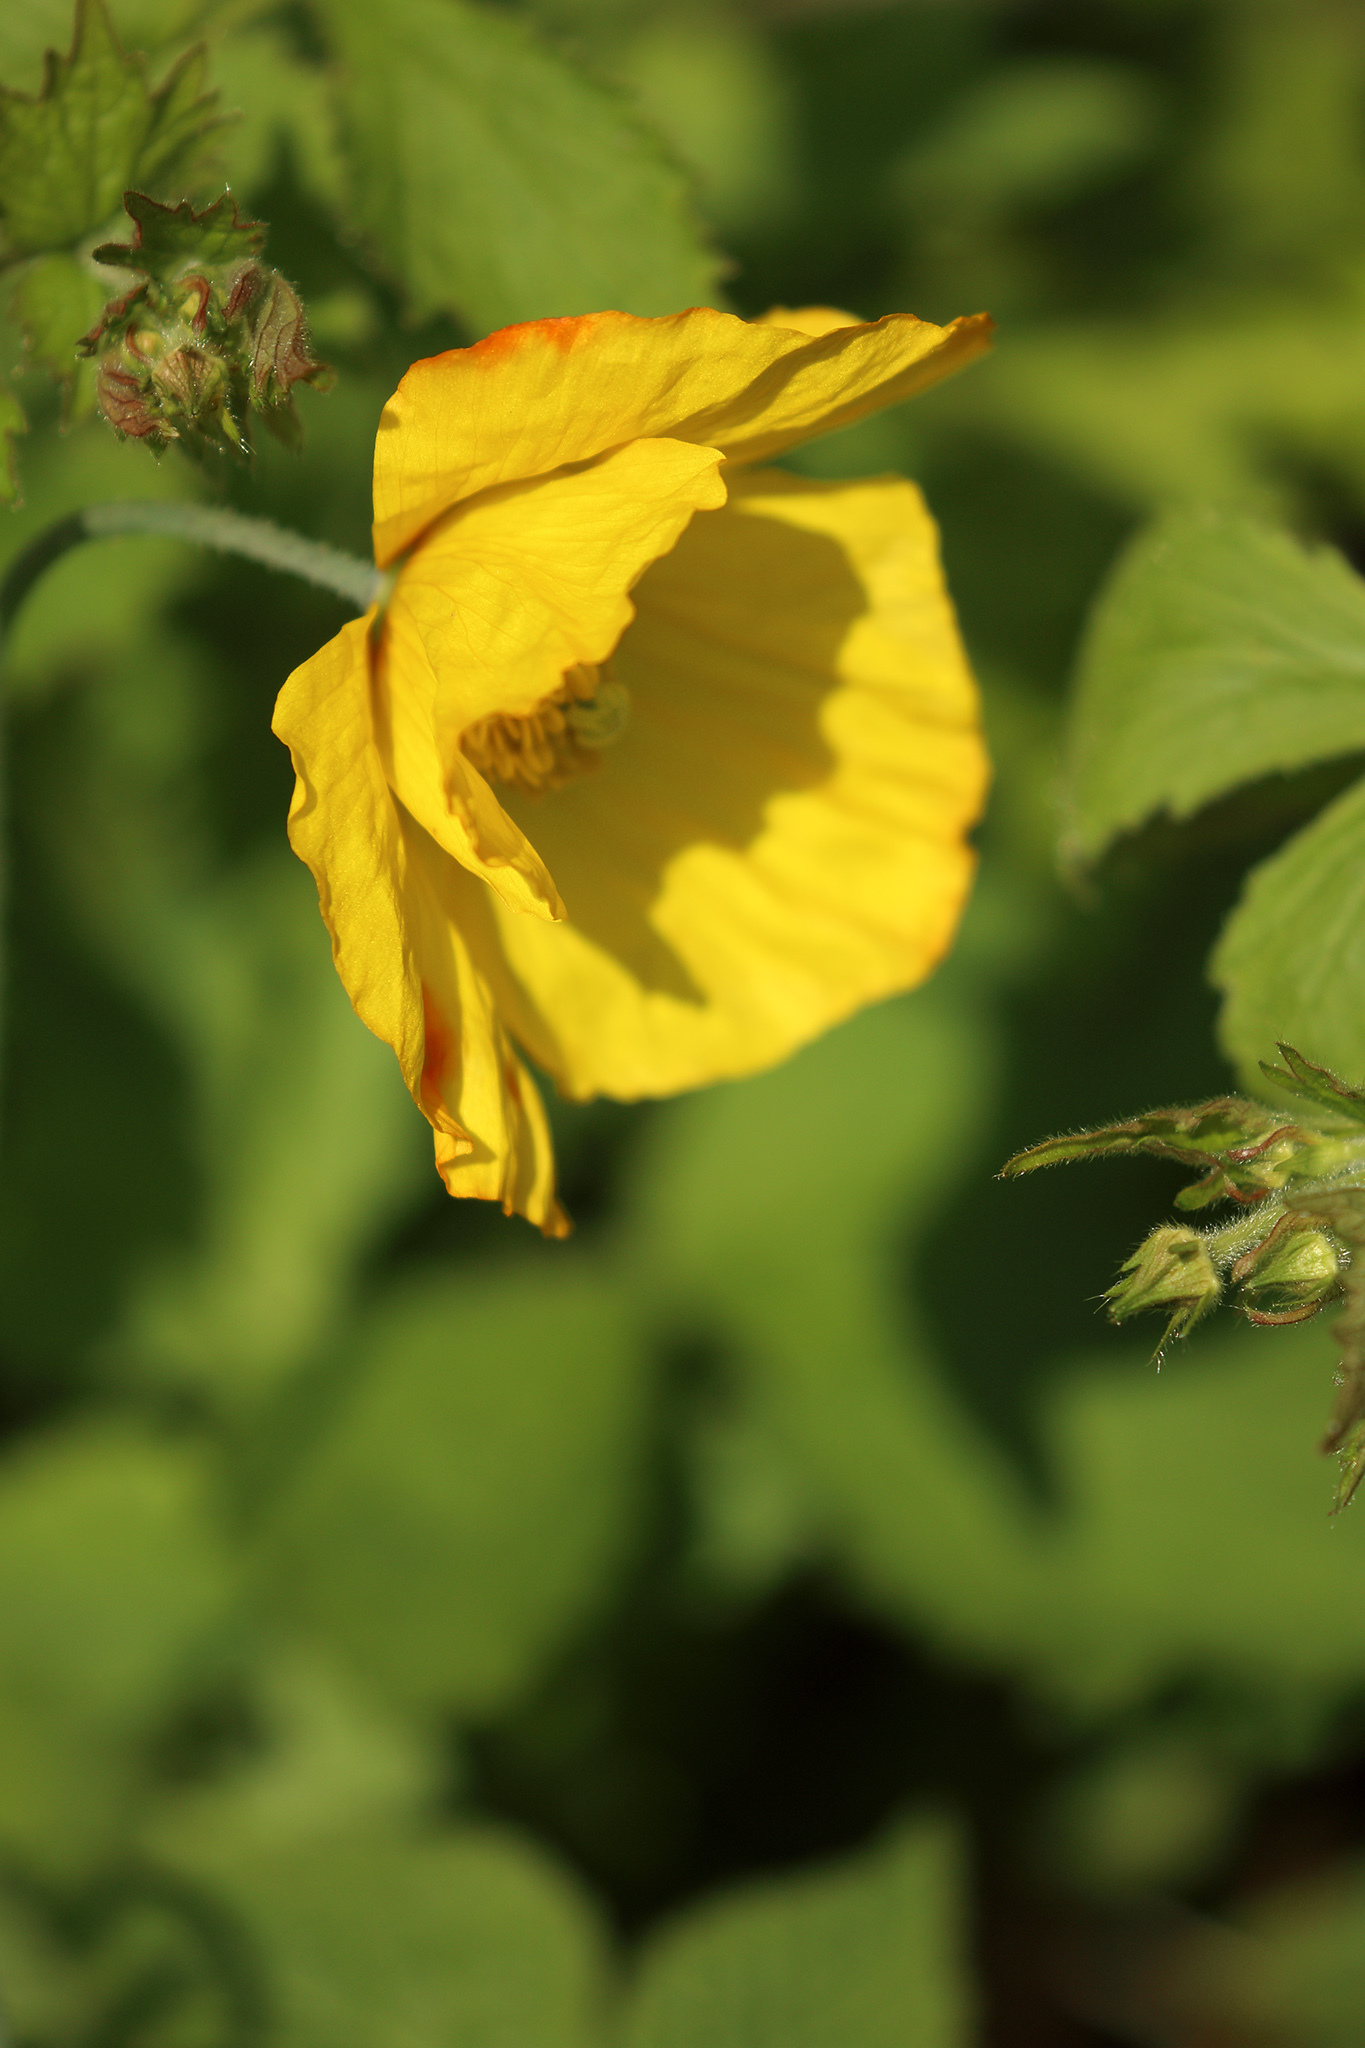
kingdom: Plantae
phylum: Tracheophyta
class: Magnoliopsida
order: Ranunculales
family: Papaveraceae
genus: Papaver
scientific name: Papaver cambricum
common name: Poppy
